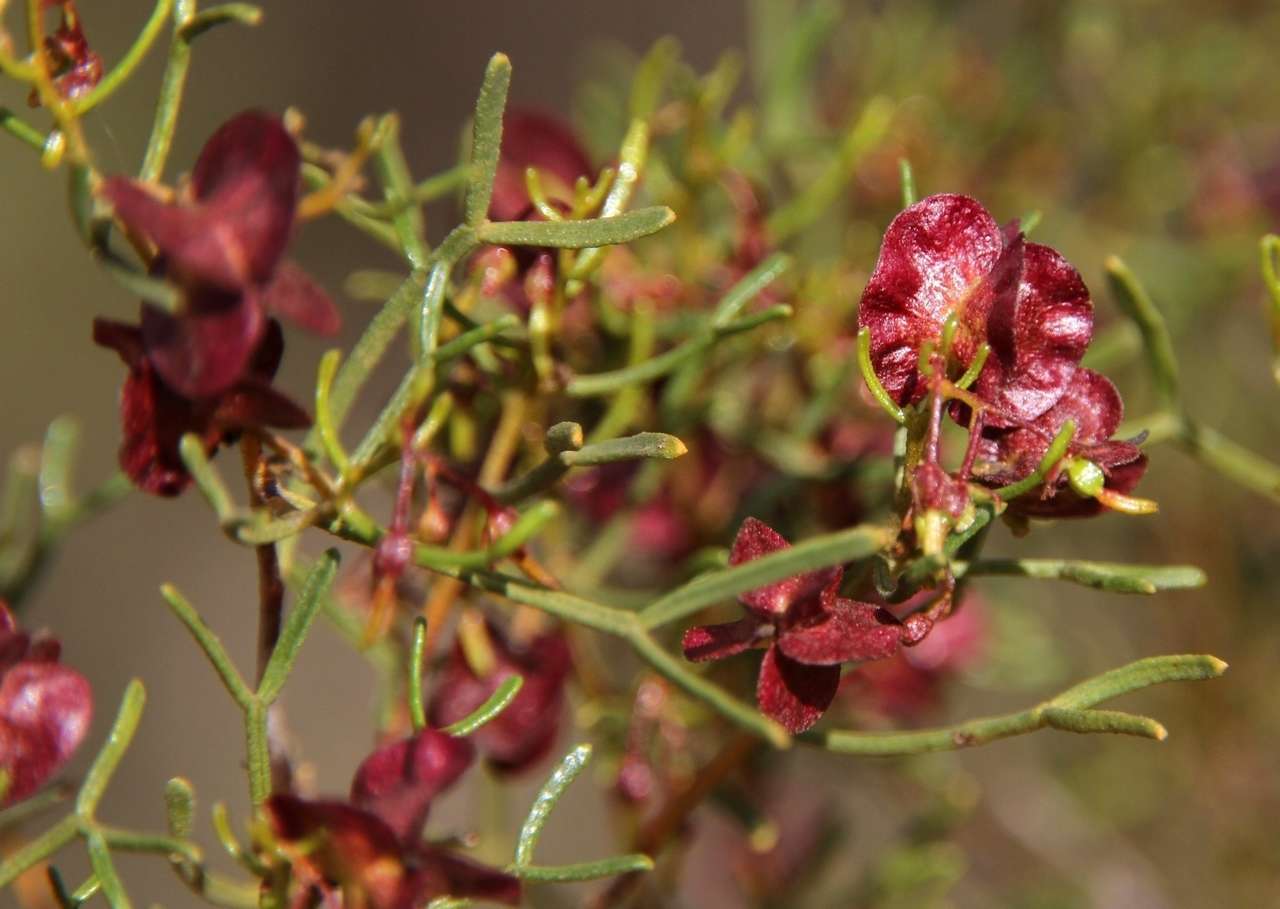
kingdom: Plantae
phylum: Tracheophyta
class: Magnoliopsida
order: Sapindales
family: Sapindaceae
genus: Dodonaea
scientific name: Dodonaea stenozyga
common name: Desert hopbush
